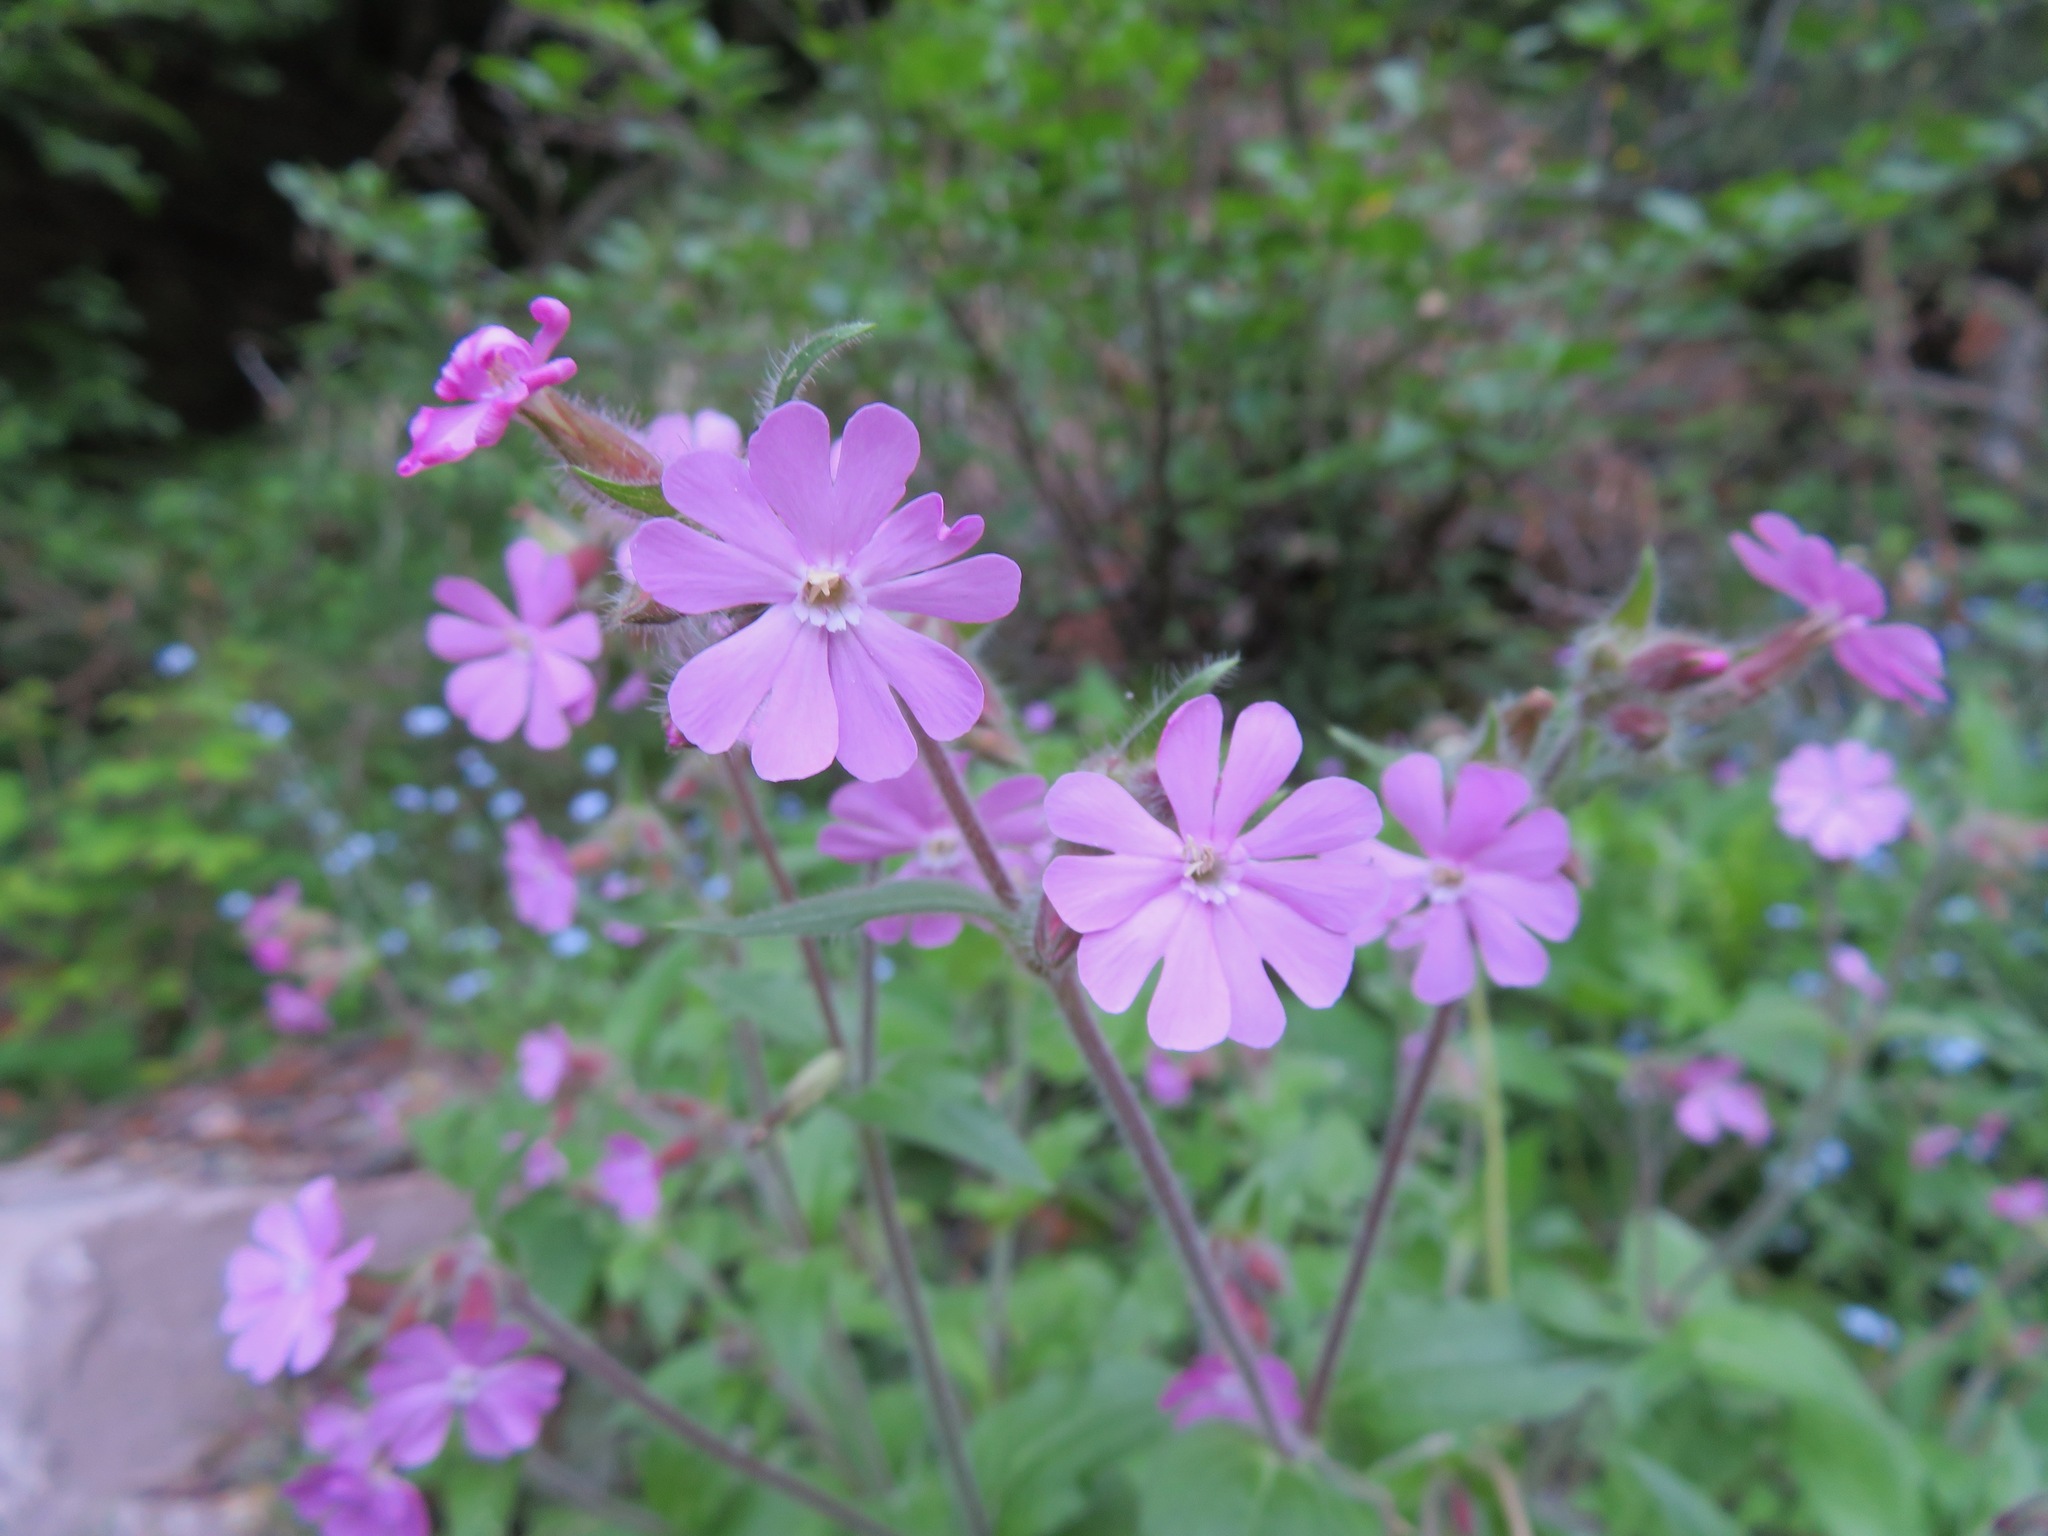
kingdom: Plantae
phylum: Tracheophyta
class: Magnoliopsida
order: Caryophyllales
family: Caryophyllaceae
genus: Silene
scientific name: Silene dioica
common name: Red campion
